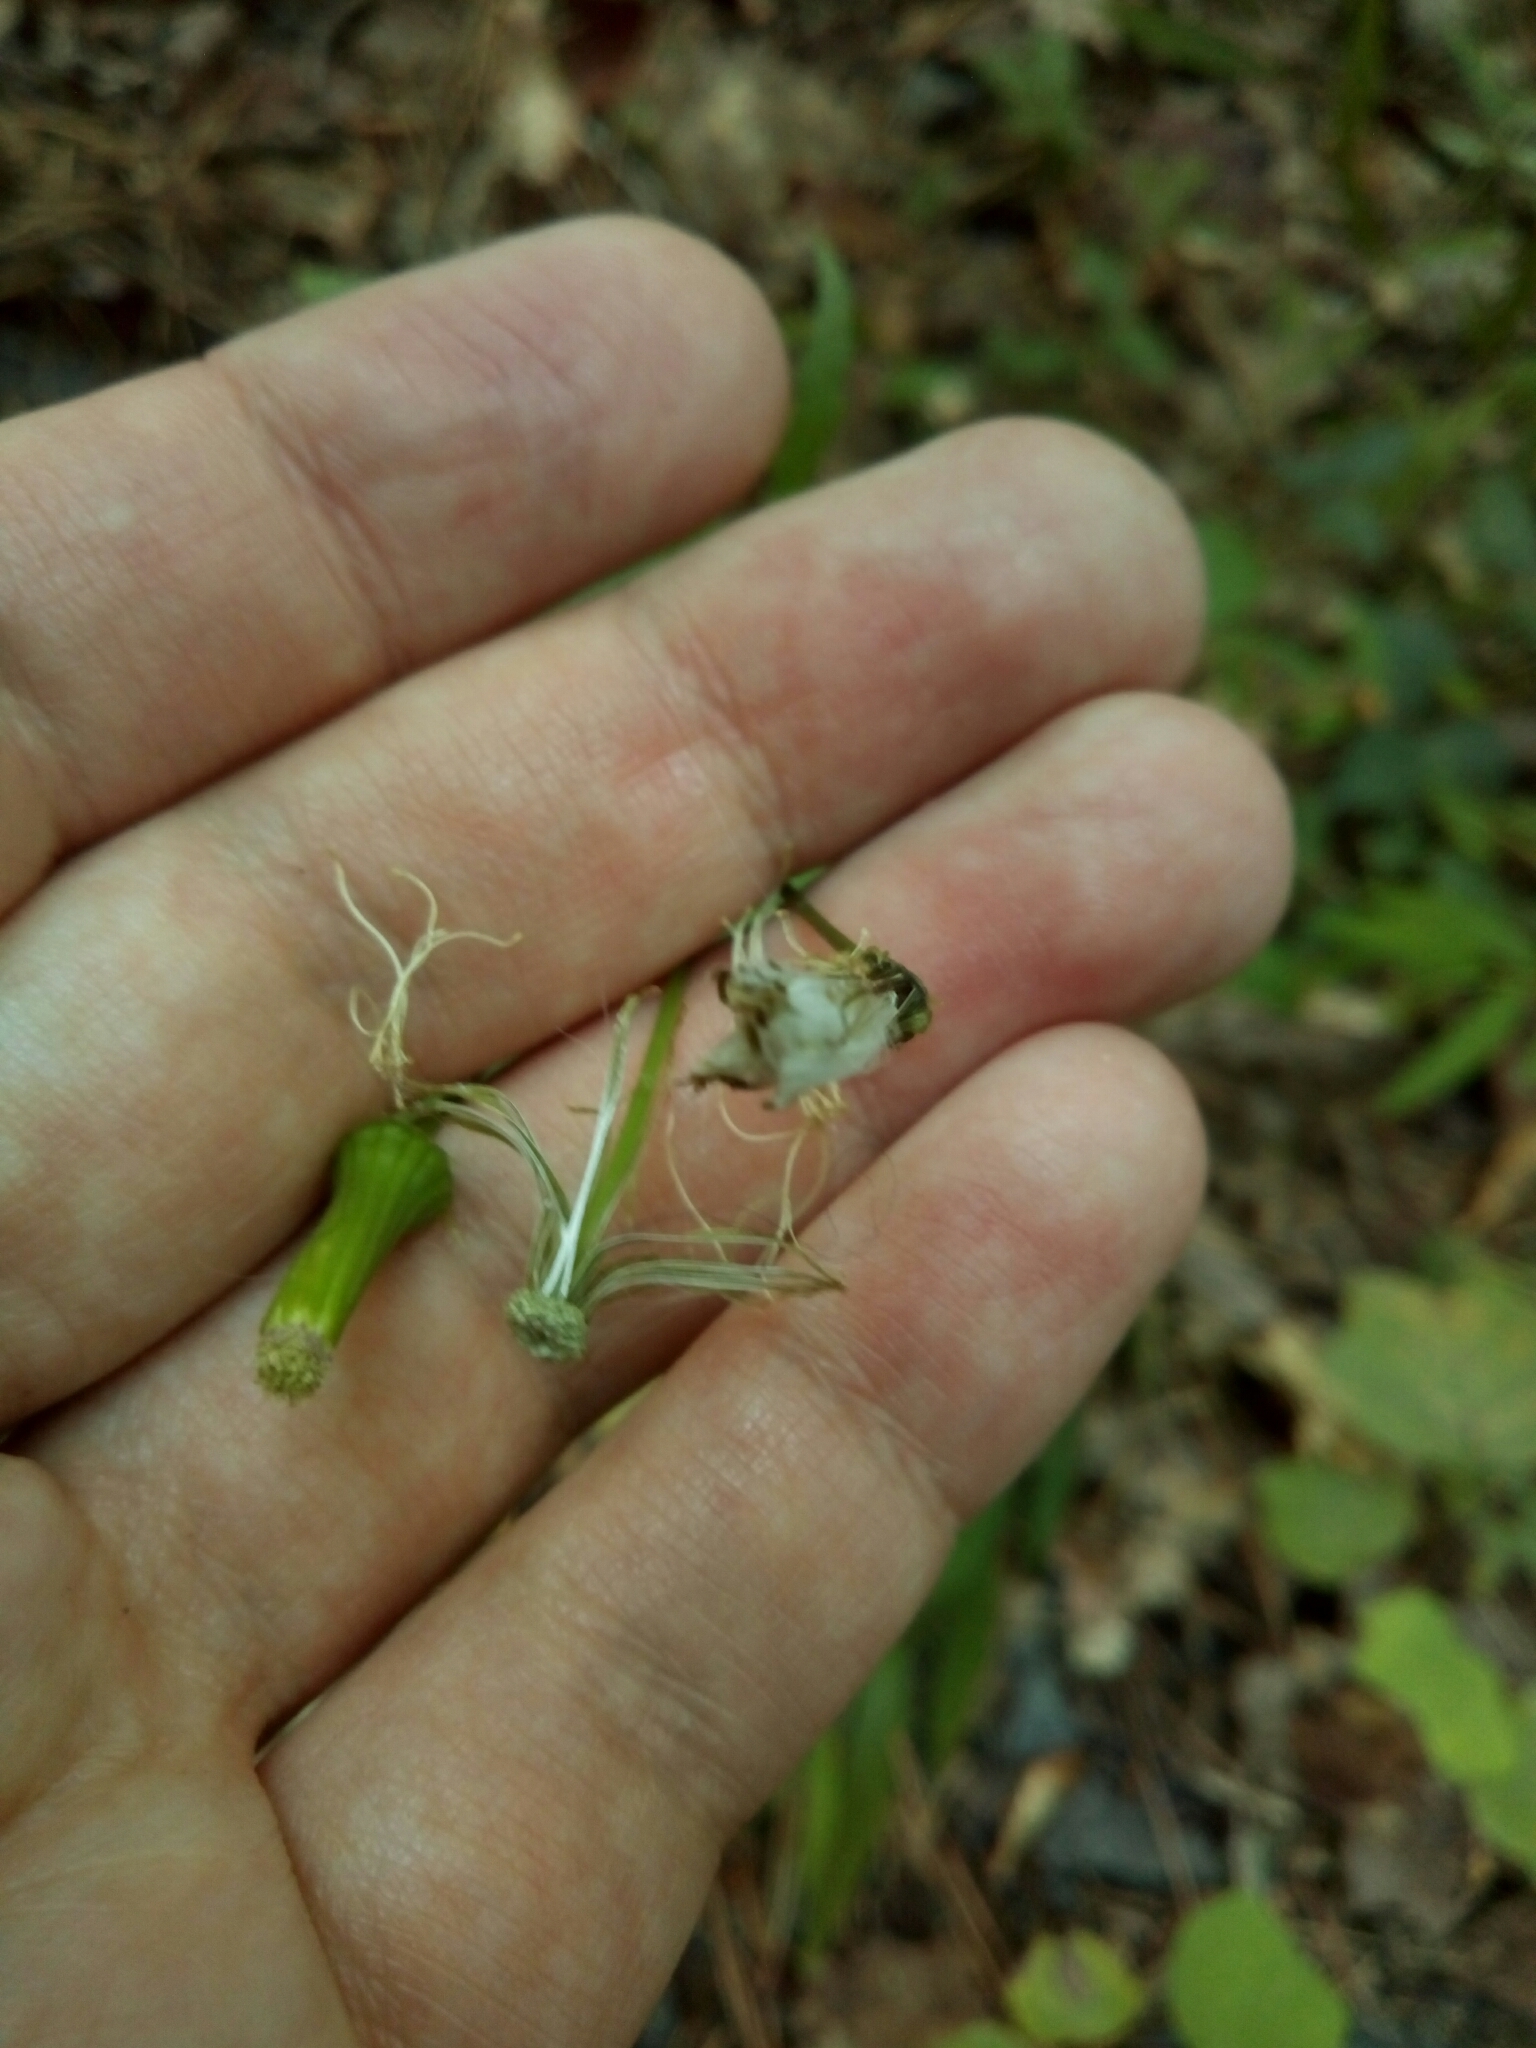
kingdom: Plantae
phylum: Tracheophyta
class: Magnoliopsida
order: Asterales
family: Asteraceae
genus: Erechtites
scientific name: Erechtites hieraciifolius
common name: American burnweed
